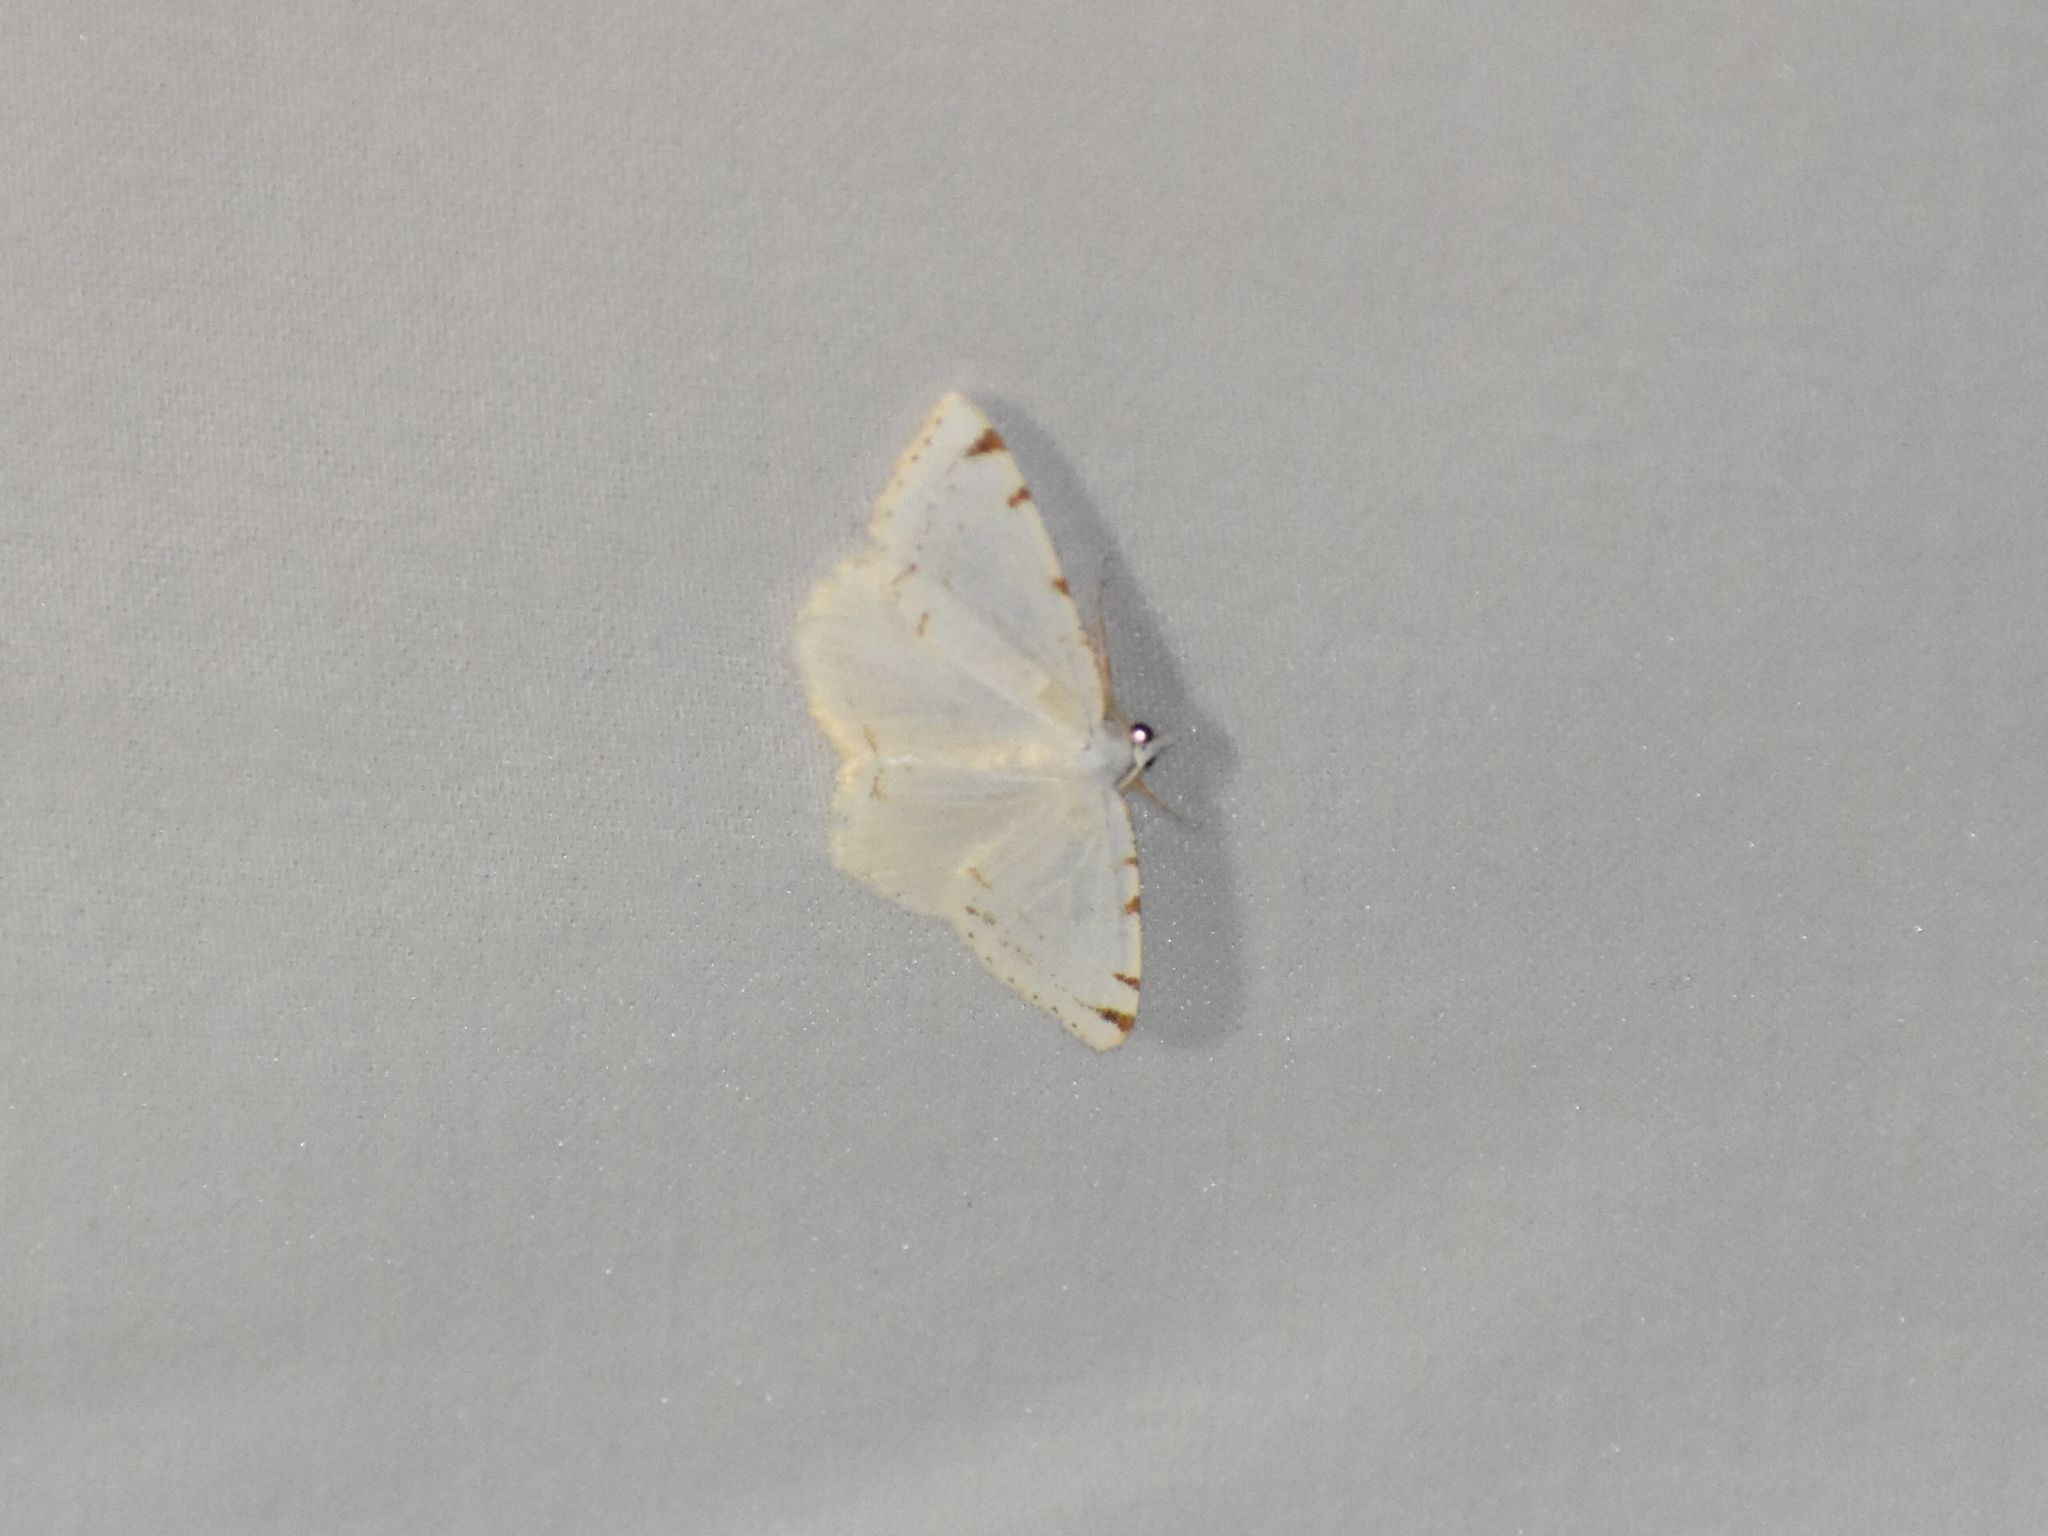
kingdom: Animalia
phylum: Arthropoda
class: Insecta
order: Lepidoptera
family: Geometridae
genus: Macaria
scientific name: Macaria pustularia
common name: Lesser maple spanworm moth
